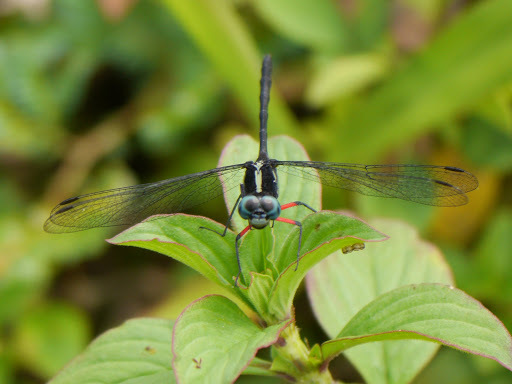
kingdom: Animalia
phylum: Arthropoda
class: Insecta
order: Odonata
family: Libellulidae
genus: Oxythemis
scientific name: Oxythemis phoenicosceles
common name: Pepperpants
